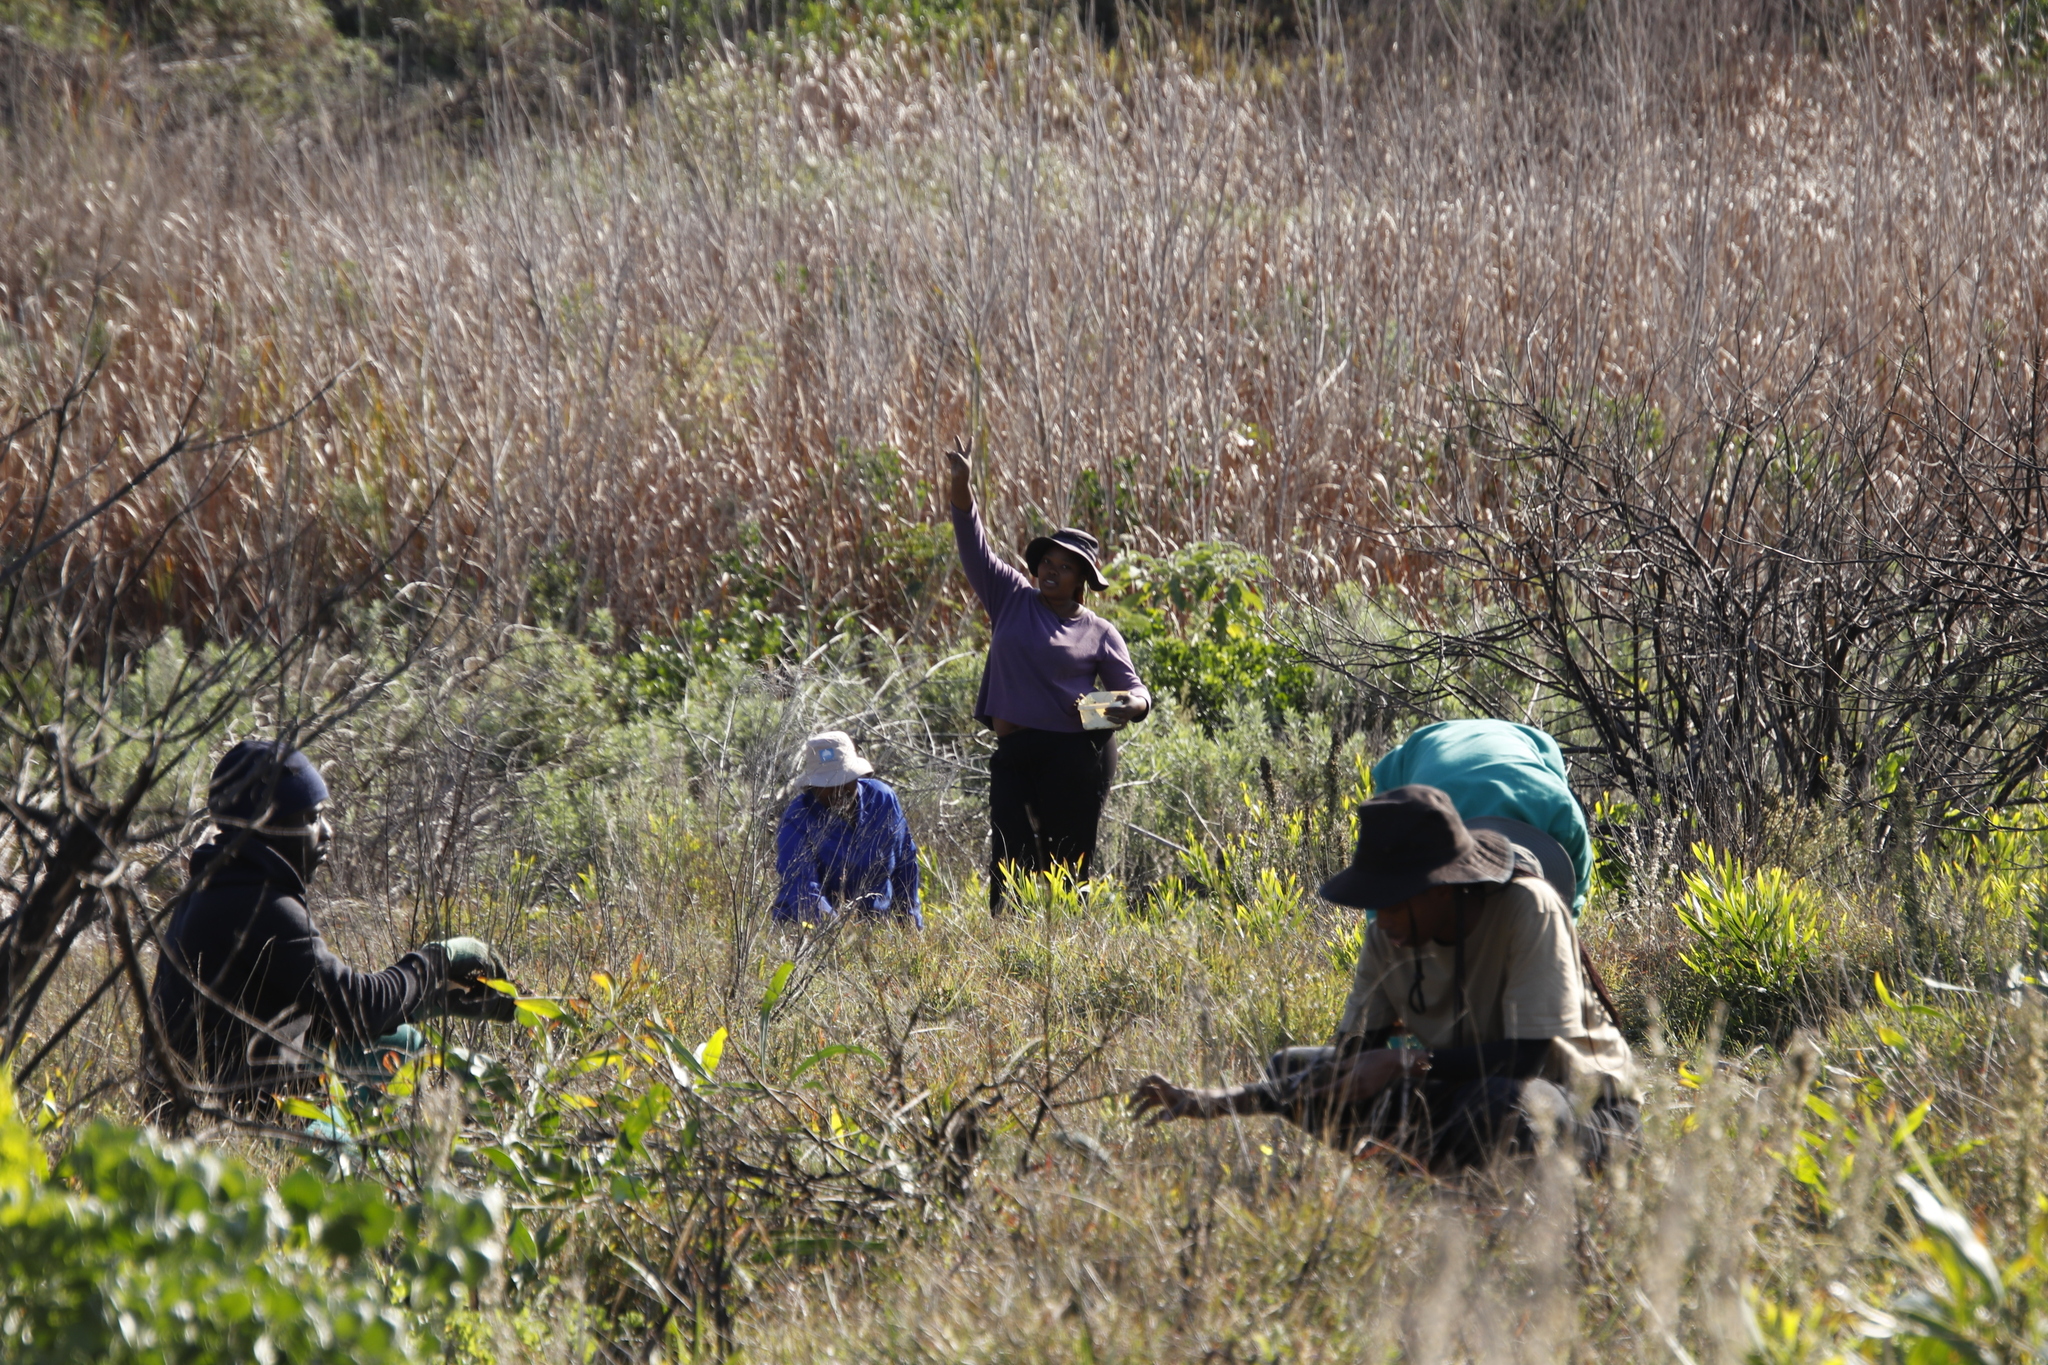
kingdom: Plantae
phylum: Tracheophyta
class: Magnoliopsida
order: Fabales
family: Fabaceae
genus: Acacia
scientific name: Acacia longifolia
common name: Sydney golden wattle
